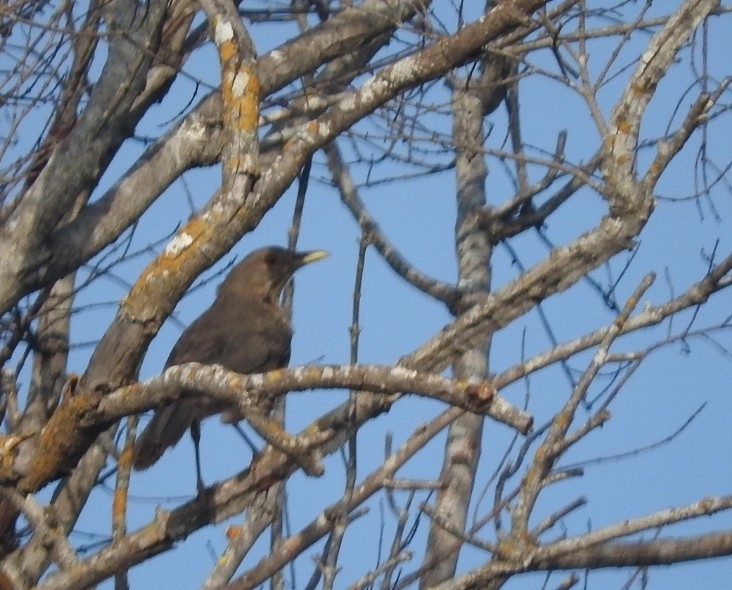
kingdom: Animalia
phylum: Chordata
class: Aves
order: Passeriformes
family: Turdidae
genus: Turdus
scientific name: Turdus grayi
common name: Clay-colored thrush
